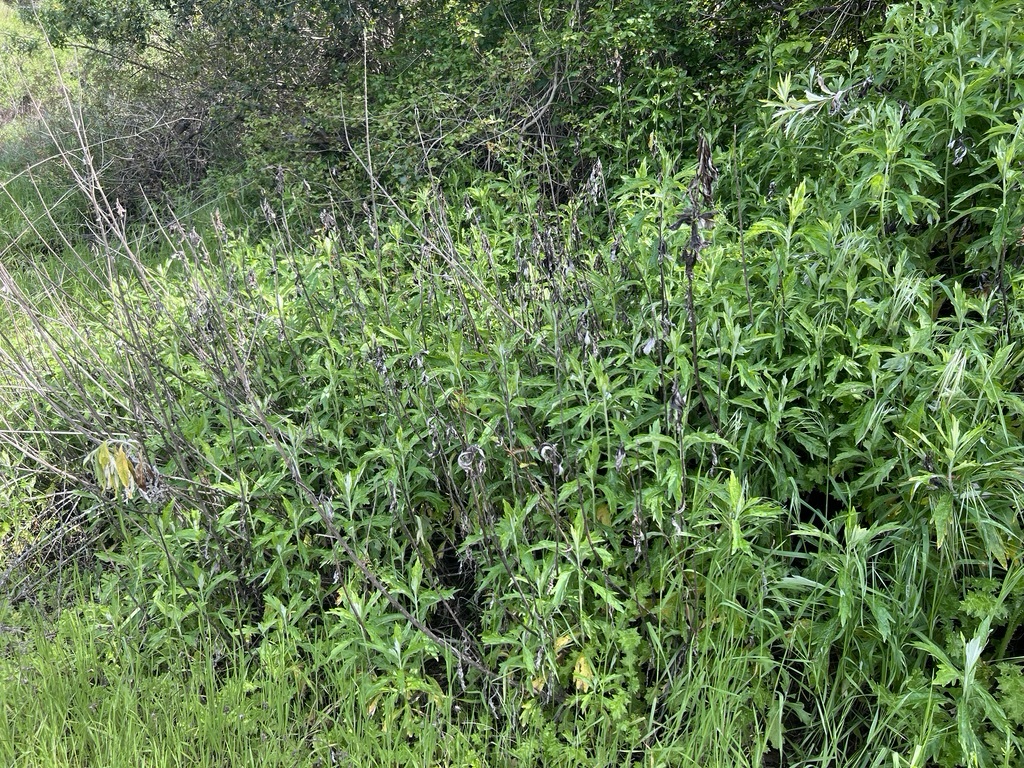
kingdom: Plantae
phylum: Tracheophyta
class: Magnoliopsida
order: Asterales
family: Asteraceae
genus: Artemisia
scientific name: Artemisia douglasiana
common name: Northwest mugwort
